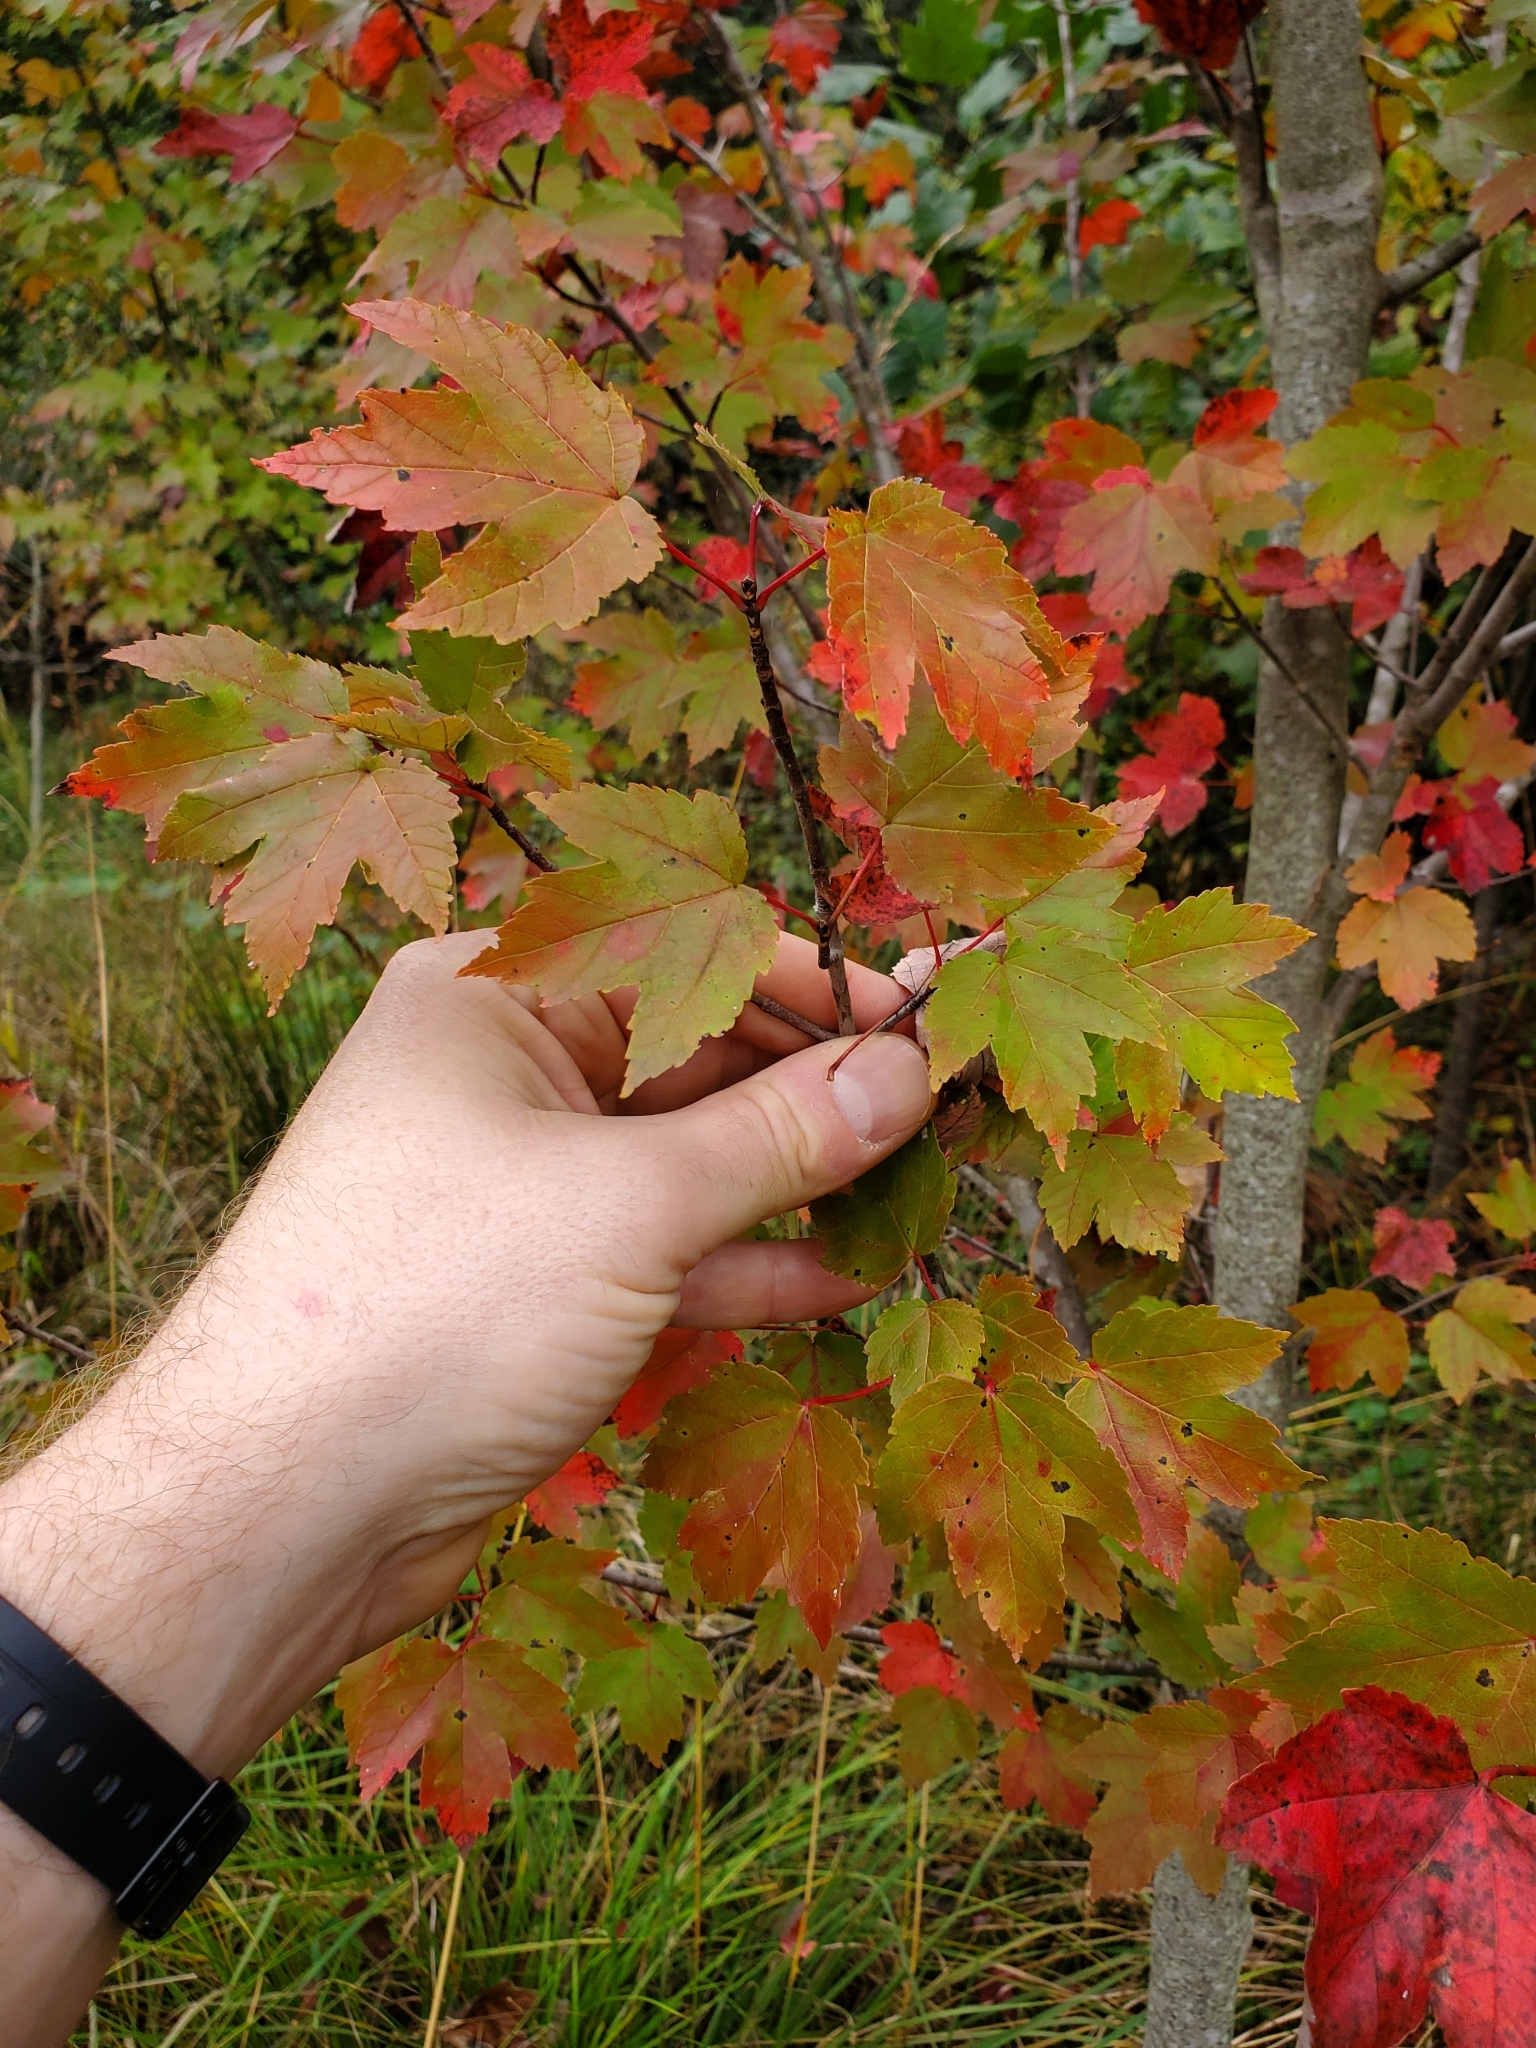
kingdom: Plantae
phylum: Tracheophyta
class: Magnoliopsida
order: Sapindales
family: Sapindaceae
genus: Acer
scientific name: Acer rubrum
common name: Red maple
